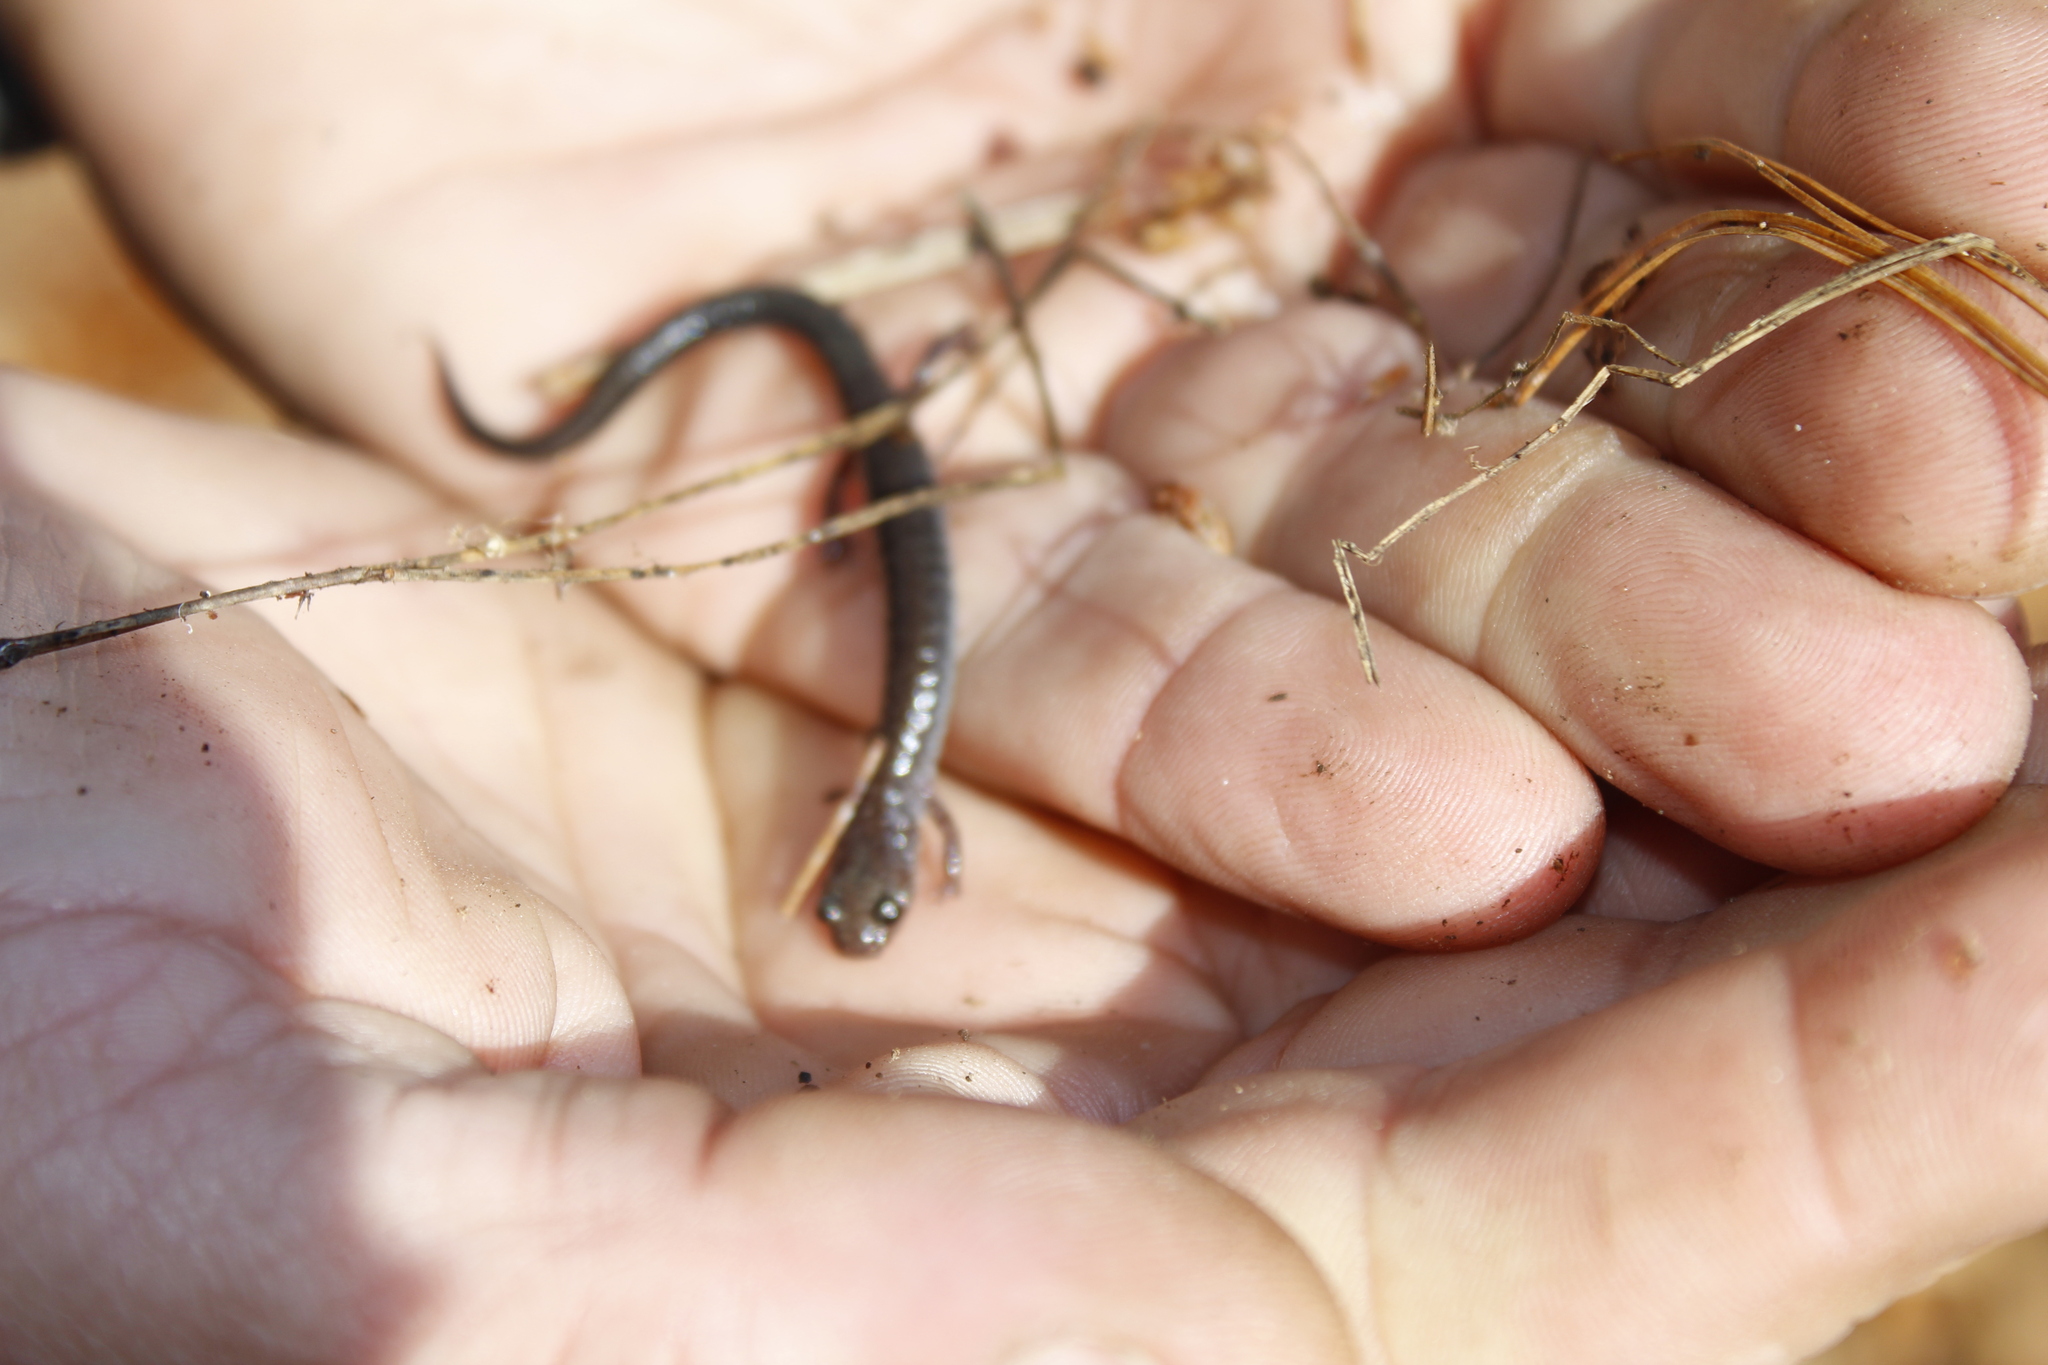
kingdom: Animalia
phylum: Chordata
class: Amphibia
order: Caudata
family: Plethodontidae
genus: Plethodon
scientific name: Plethodon cinereus
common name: Redback salamander
